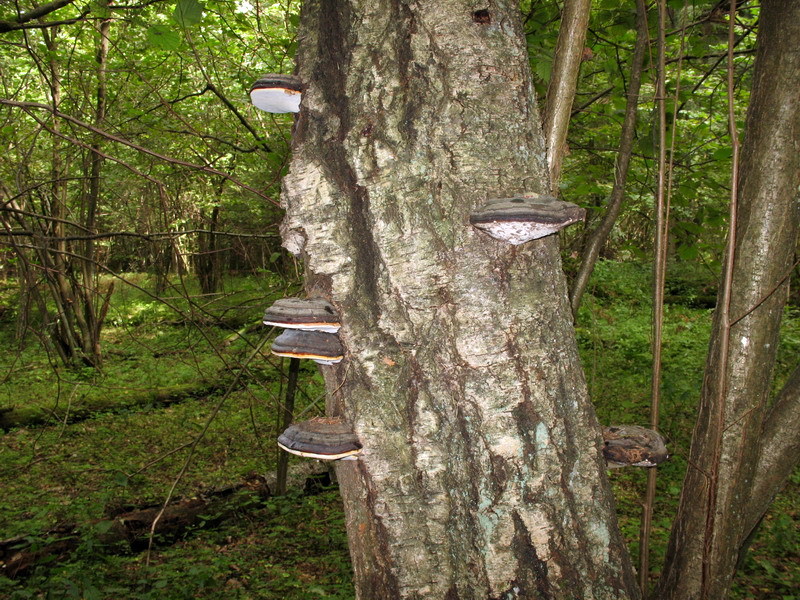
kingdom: Fungi
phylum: Basidiomycota
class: Agaricomycetes
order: Polyporales
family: Fomitopsidaceae
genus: Fomitopsis
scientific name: Fomitopsis pinicola
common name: Red-belted bracket
